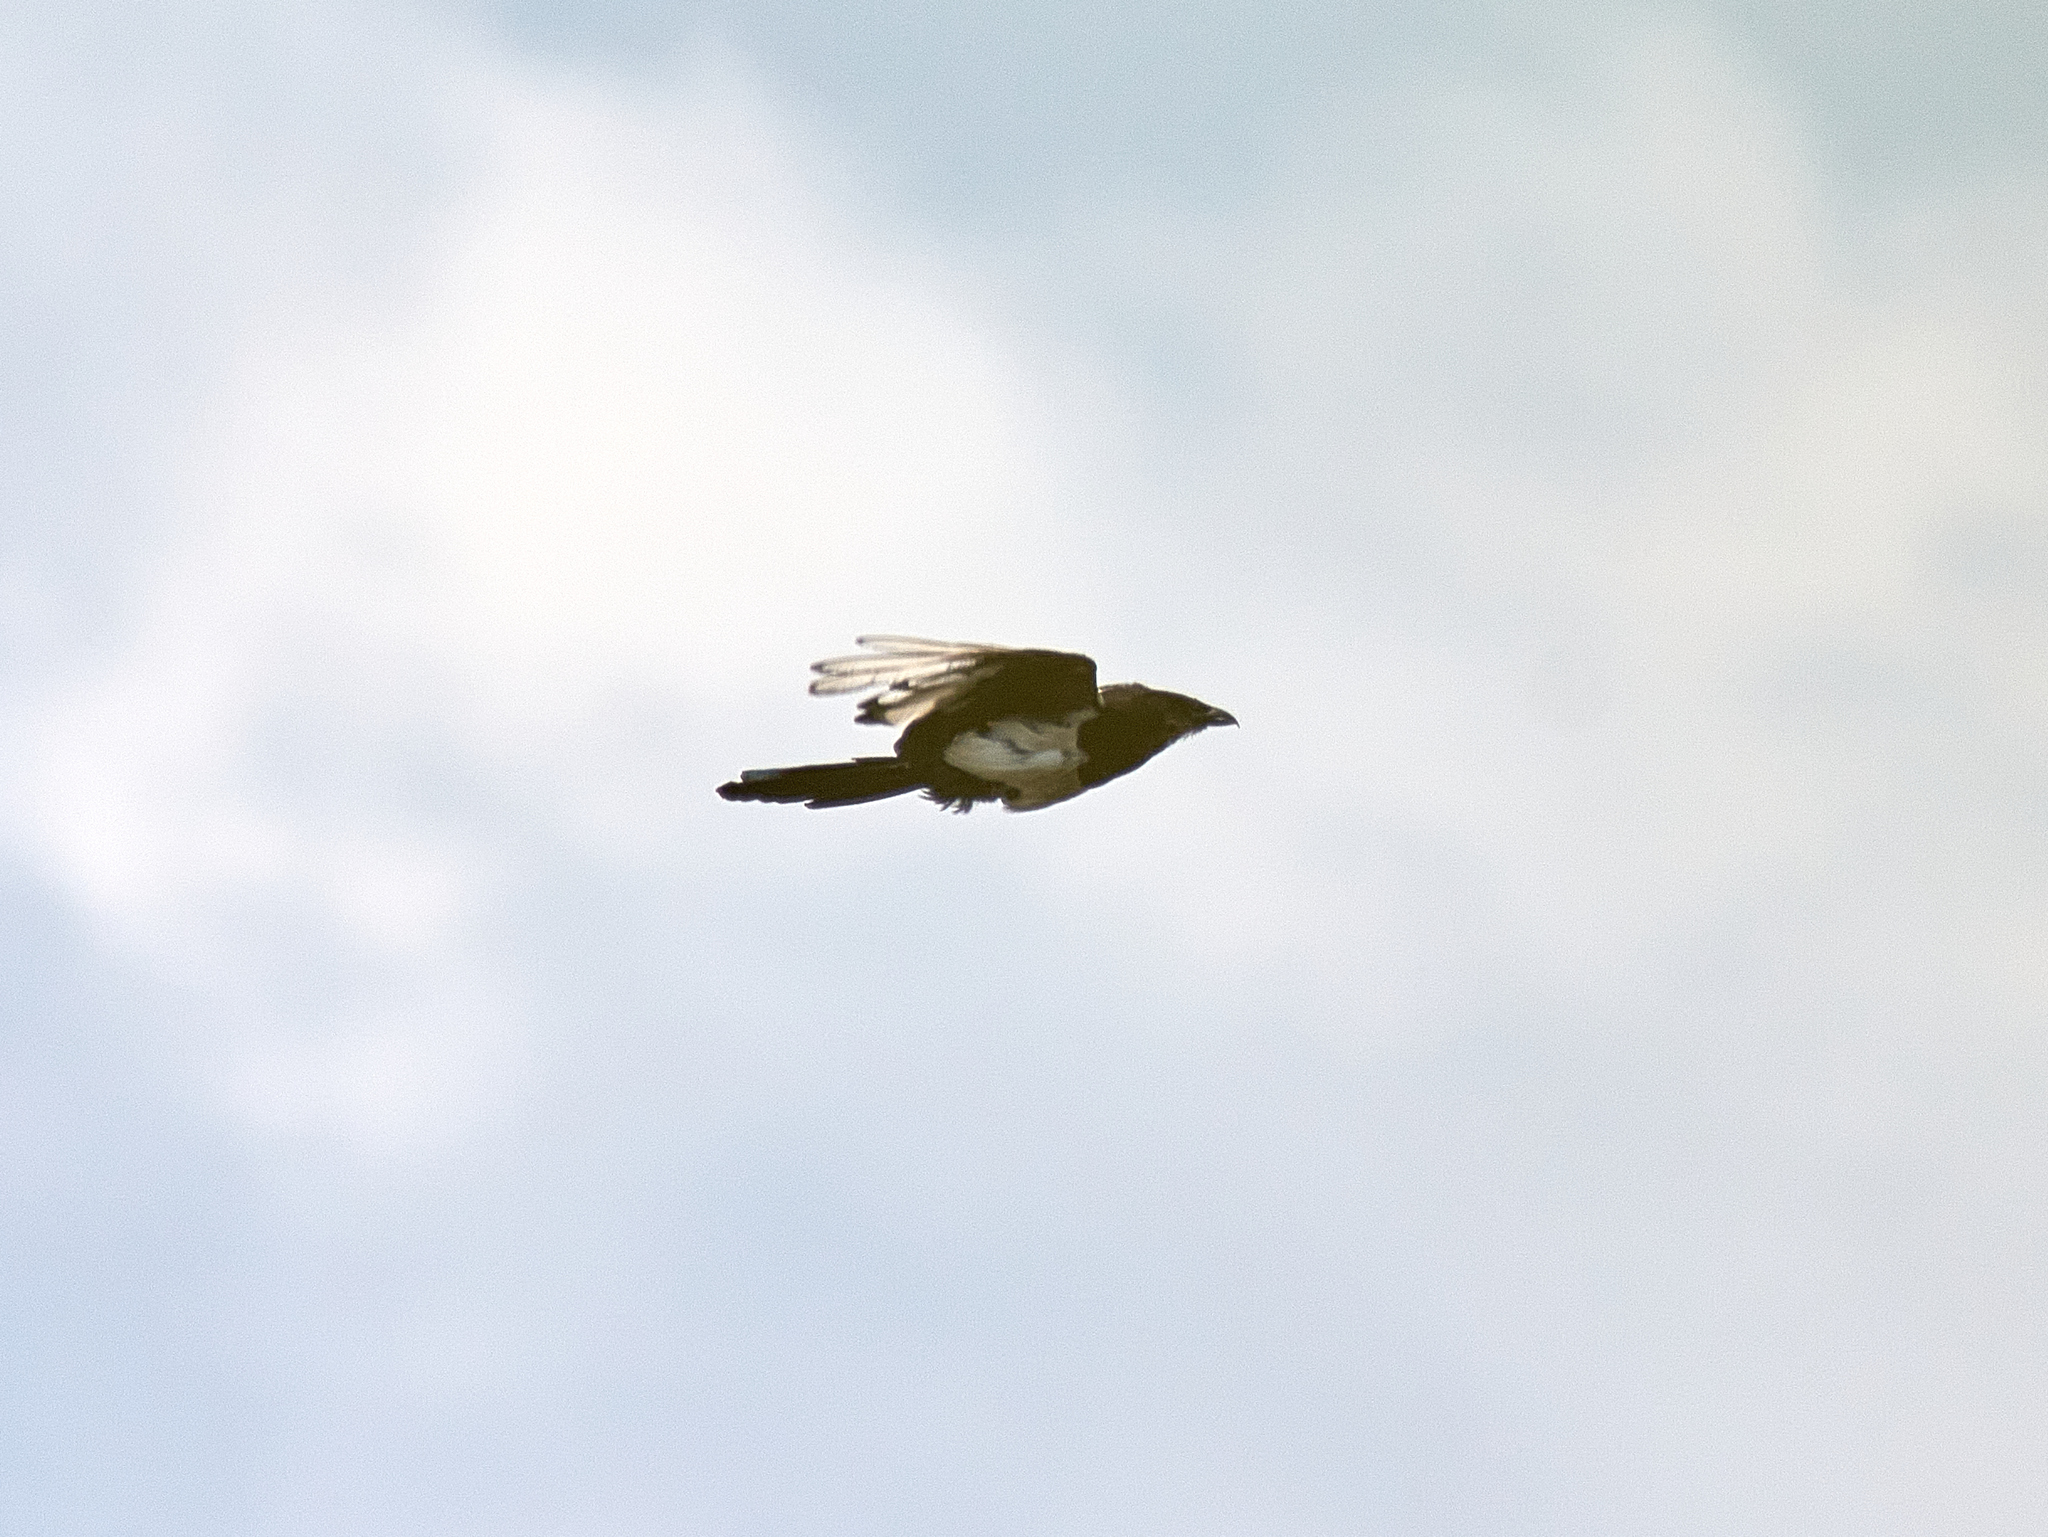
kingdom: Animalia
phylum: Chordata
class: Aves
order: Passeriformes
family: Corvidae
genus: Pica
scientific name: Pica pica
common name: Eurasian magpie
